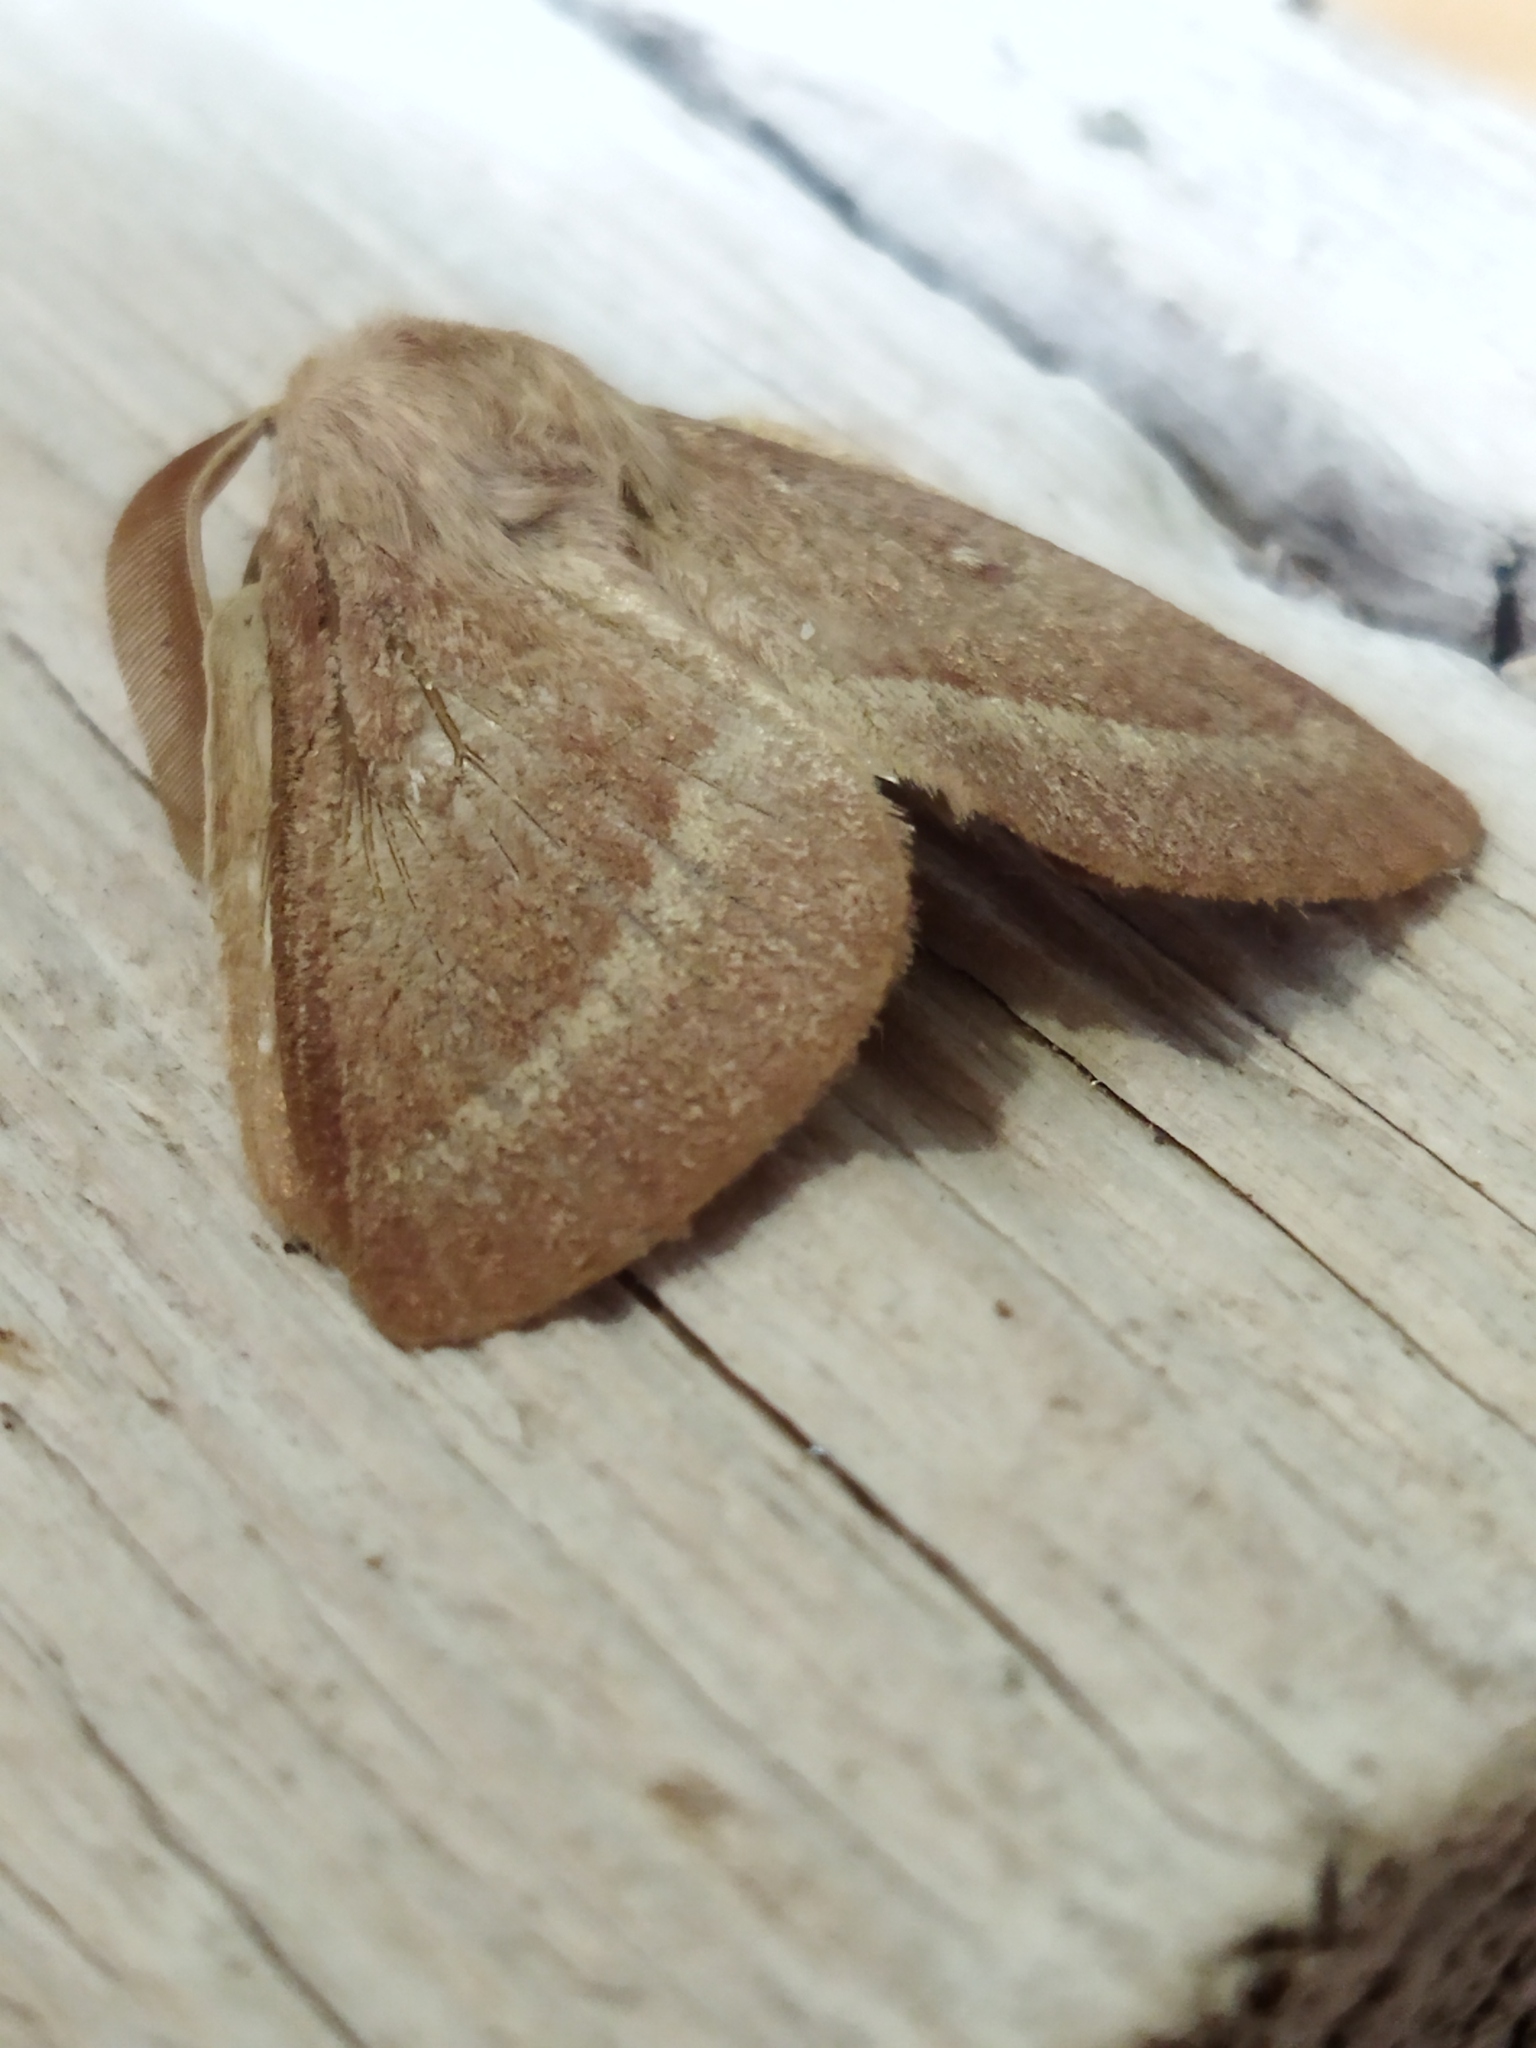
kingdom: Animalia
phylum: Arthropoda
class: Insecta
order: Lepidoptera
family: Lasiocampidae
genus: Lasiocampa
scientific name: Lasiocampa trifolii
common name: Grass eggar
